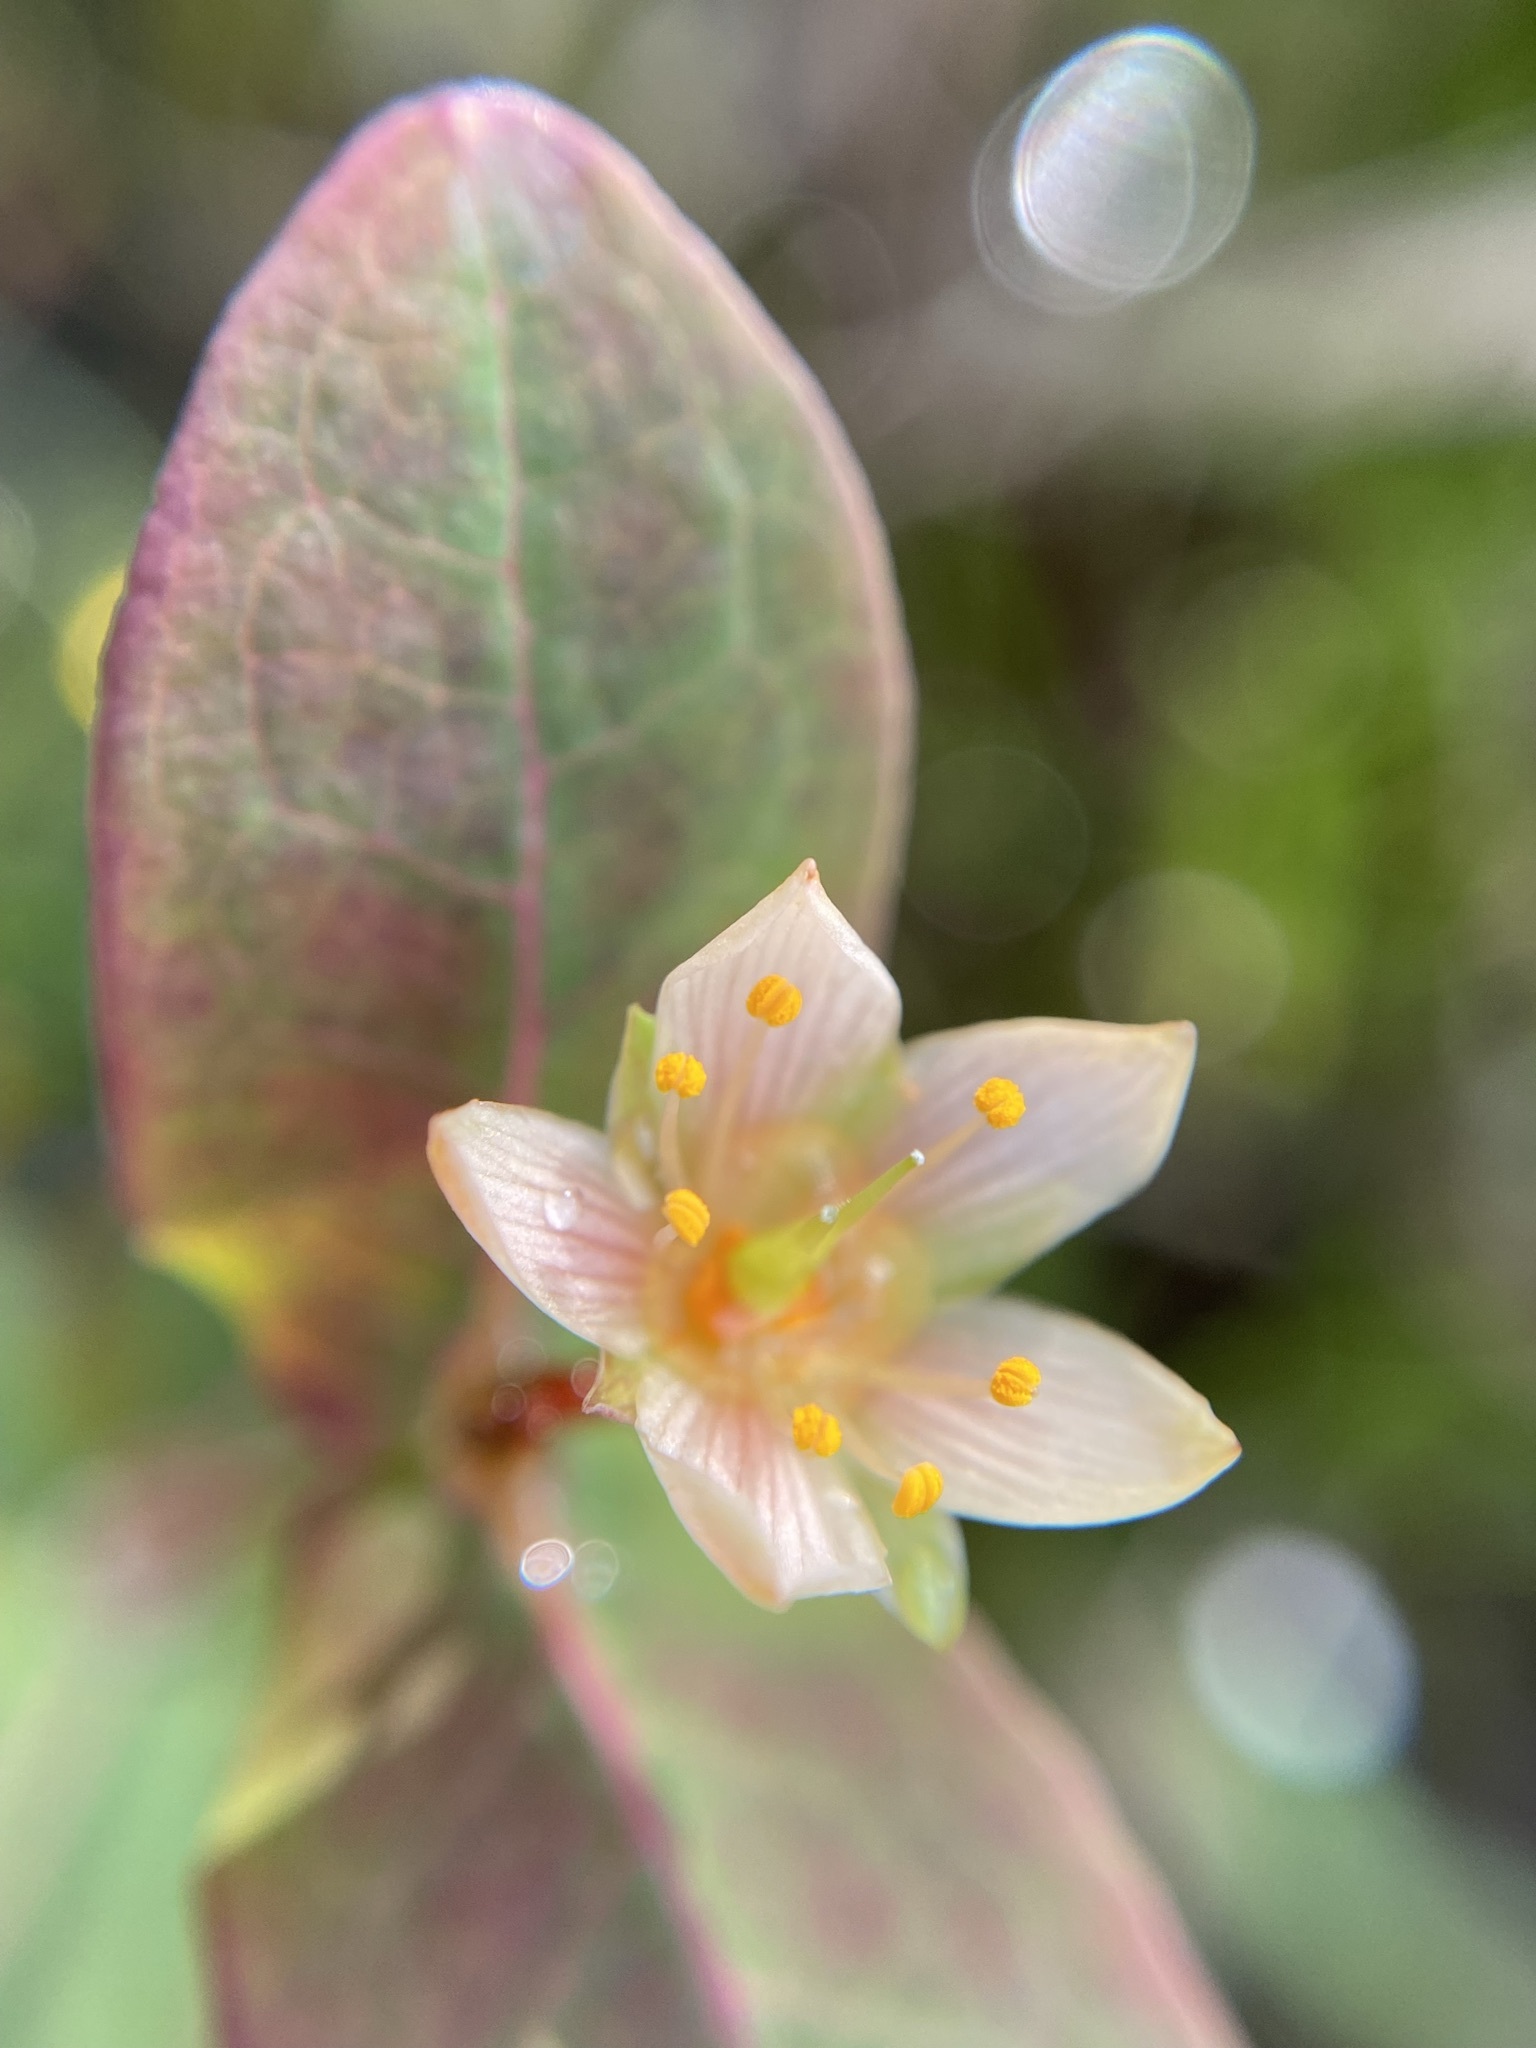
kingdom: Plantae
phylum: Tracheophyta
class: Magnoliopsida
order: Malpighiales
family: Hypericaceae
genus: Triadenum
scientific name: Triadenum virginicum
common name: Marsh st. john's-wort
